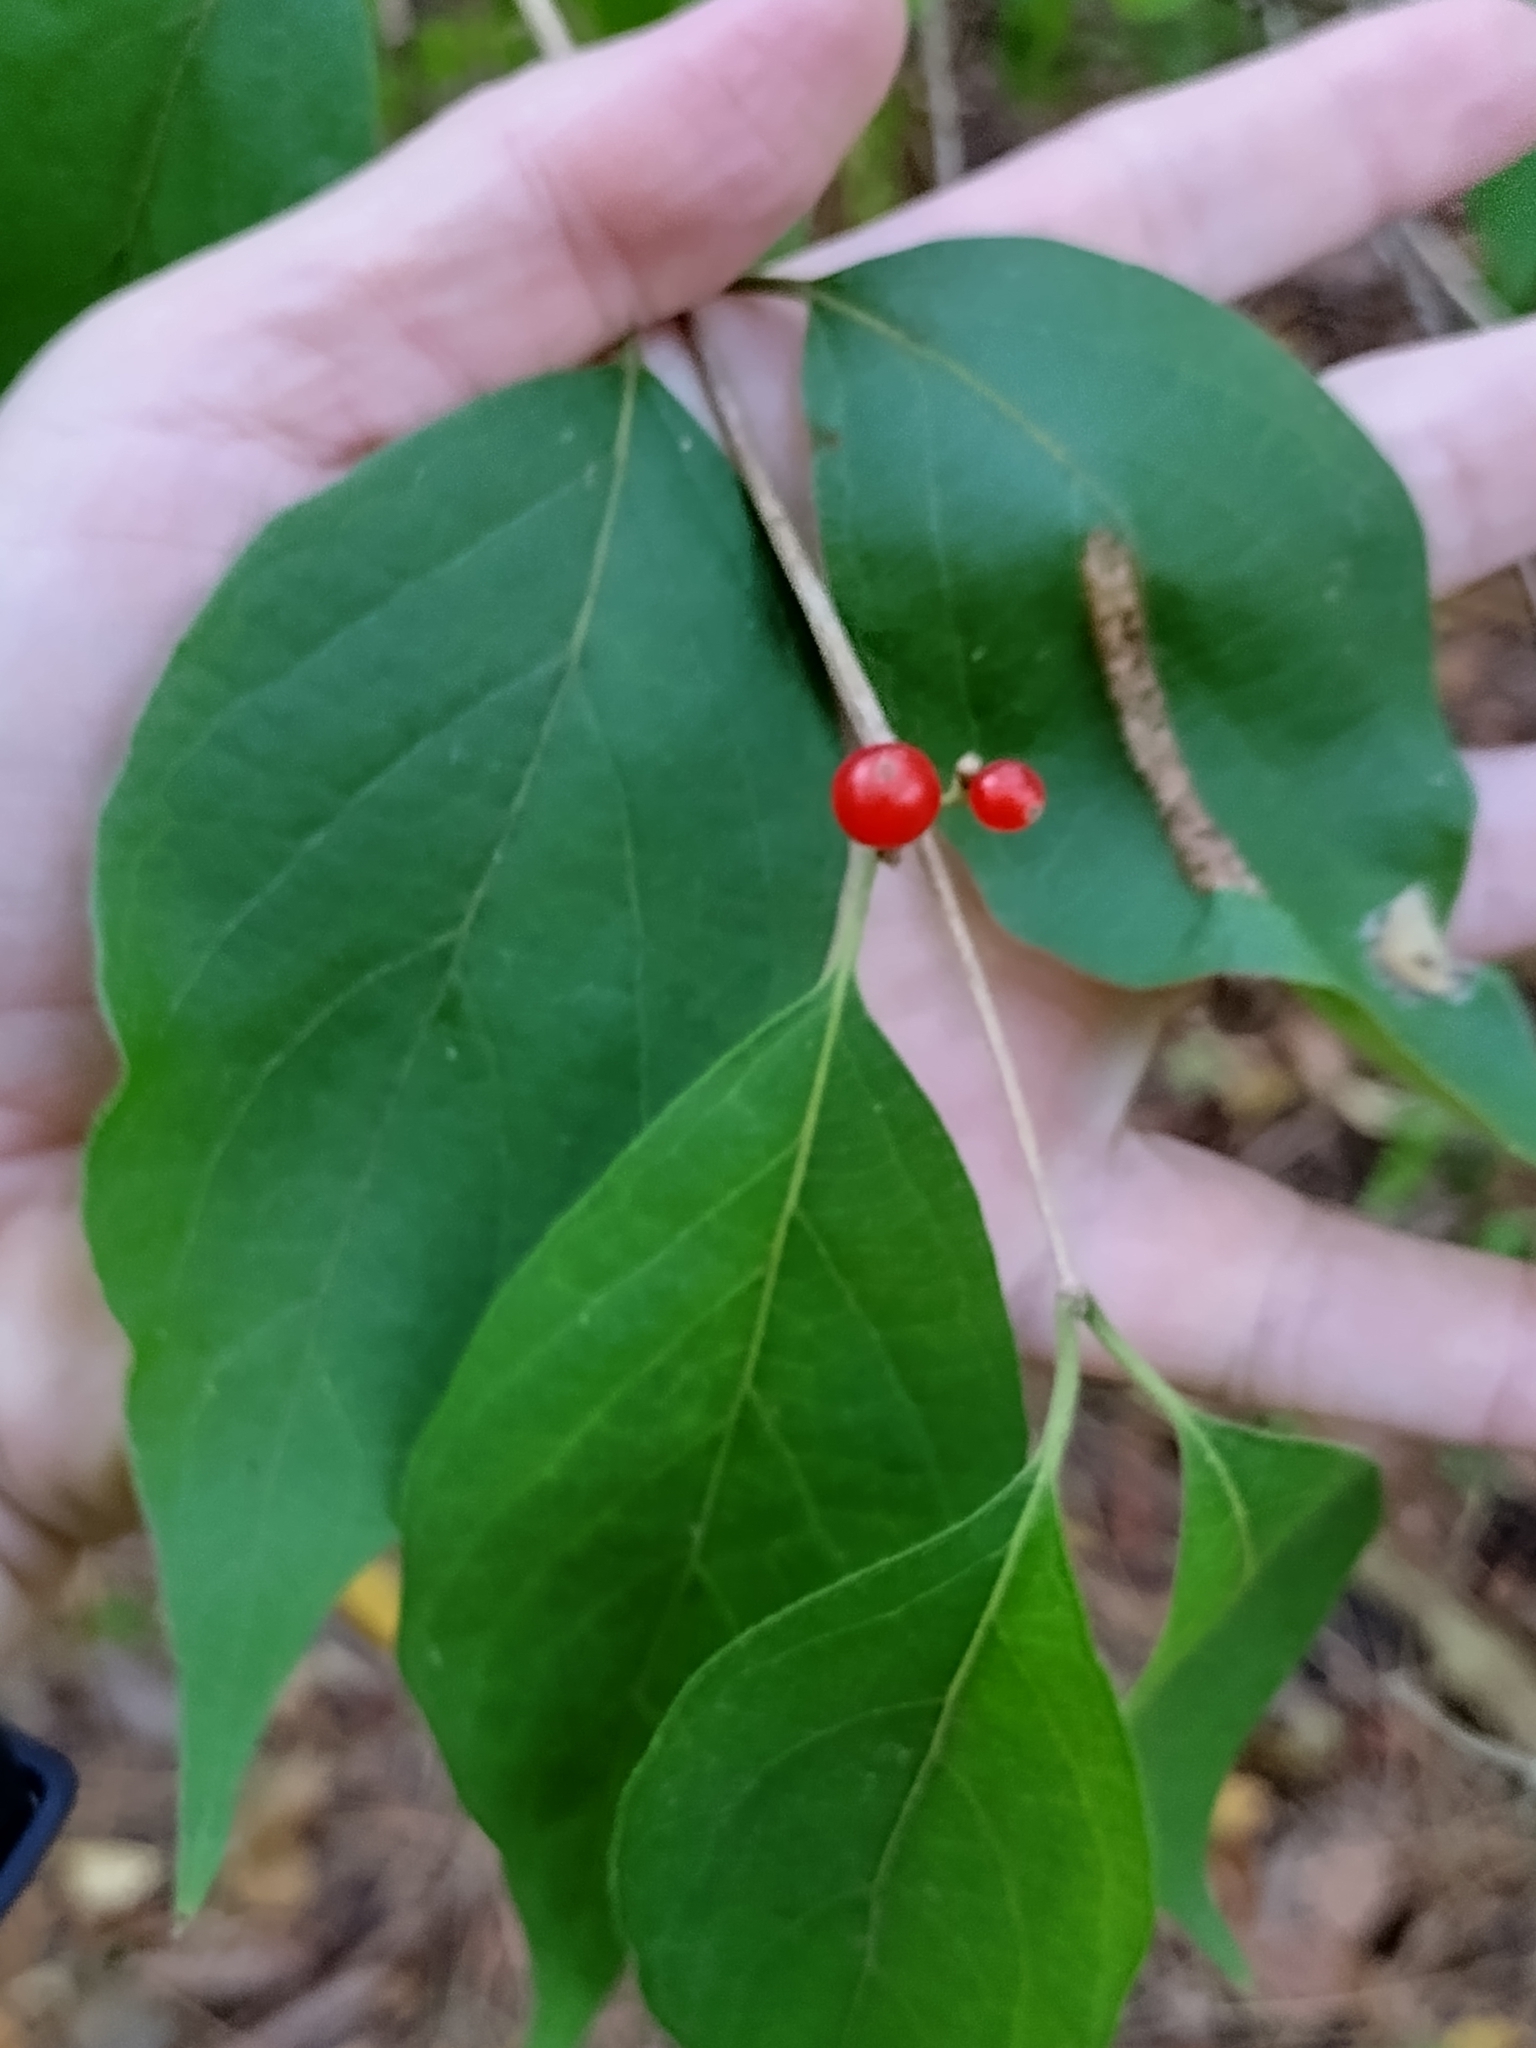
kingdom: Plantae
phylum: Tracheophyta
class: Magnoliopsida
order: Dipsacales
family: Caprifoliaceae
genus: Lonicera
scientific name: Lonicera maackii
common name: Amur honeysuckle
